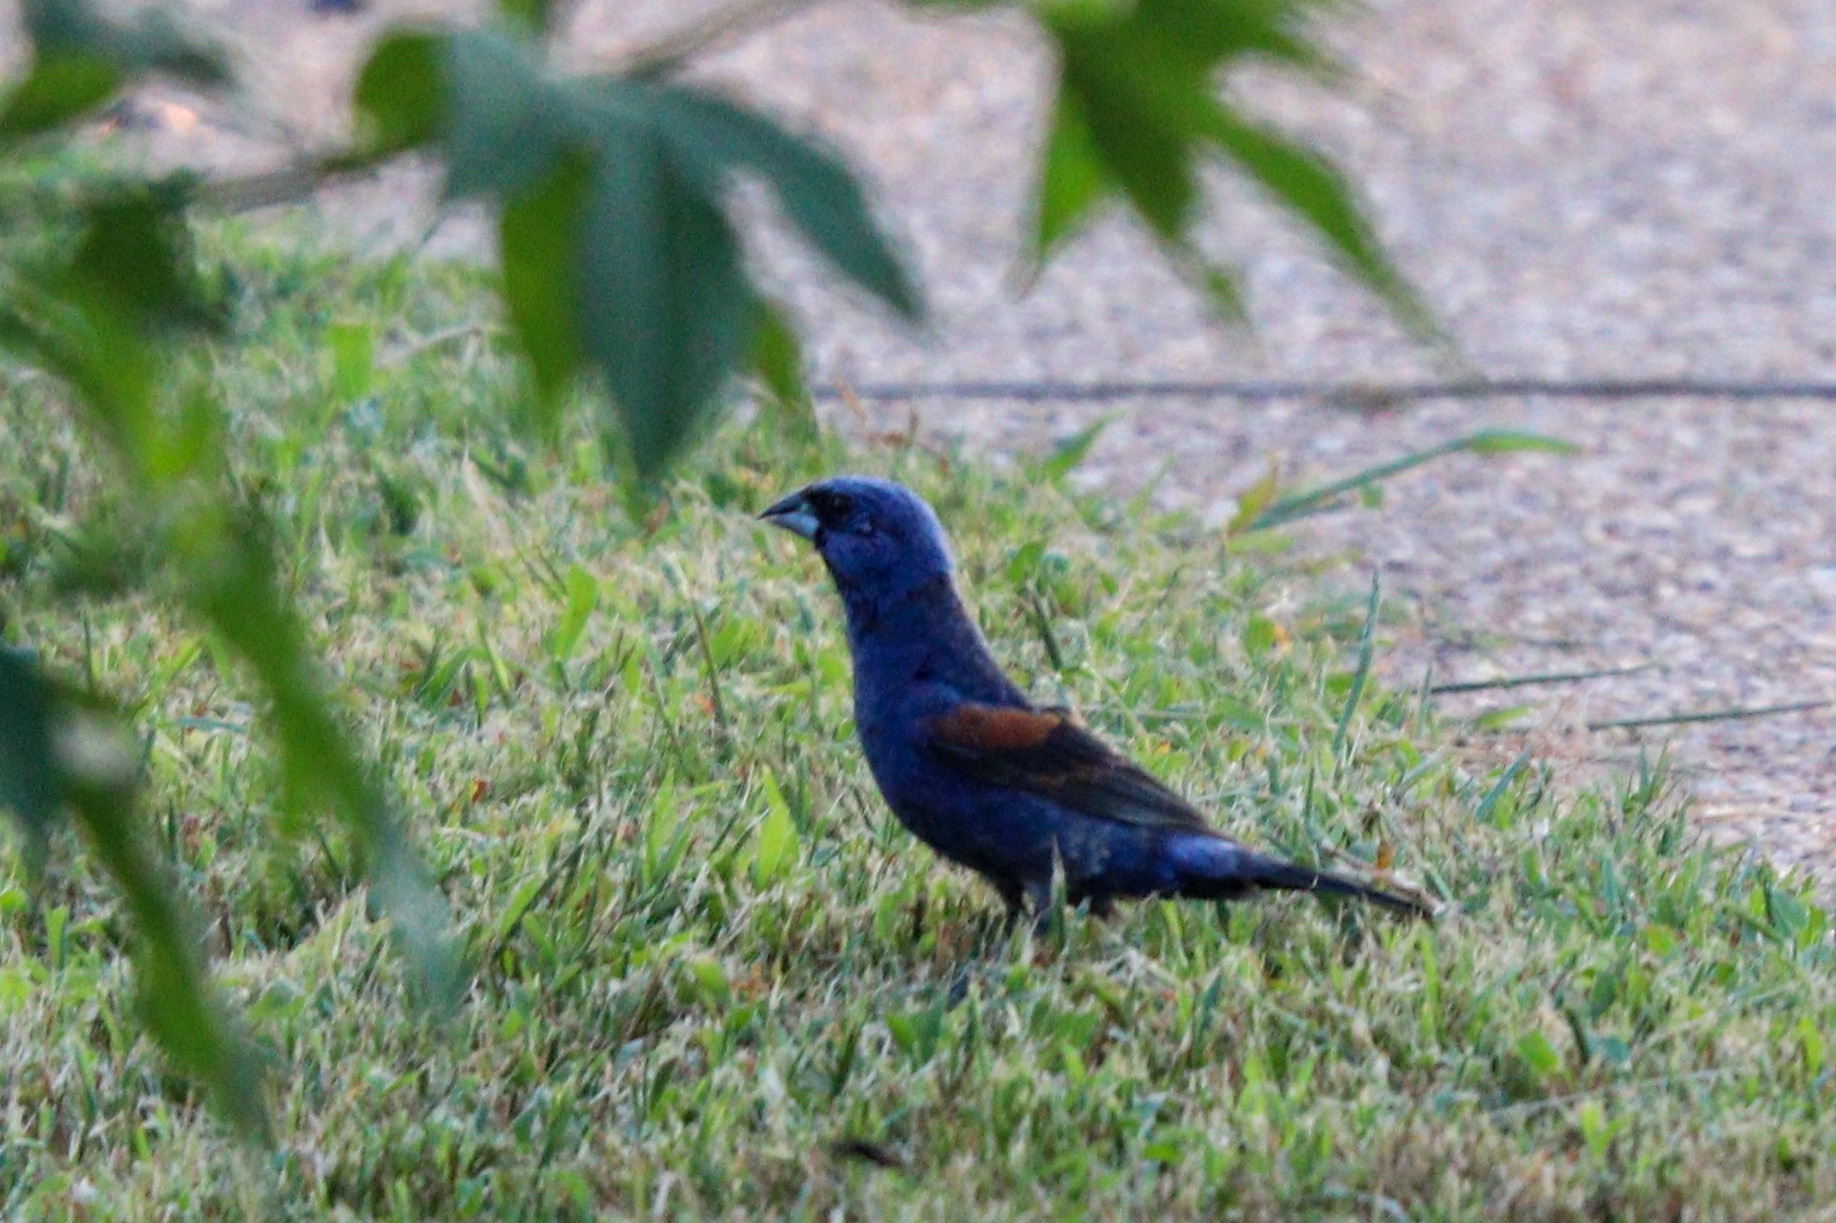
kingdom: Animalia
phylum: Chordata
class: Aves
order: Passeriformes
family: Cardinalidae
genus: Passerina
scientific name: Passerina caerulea
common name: Blue grosbeak
